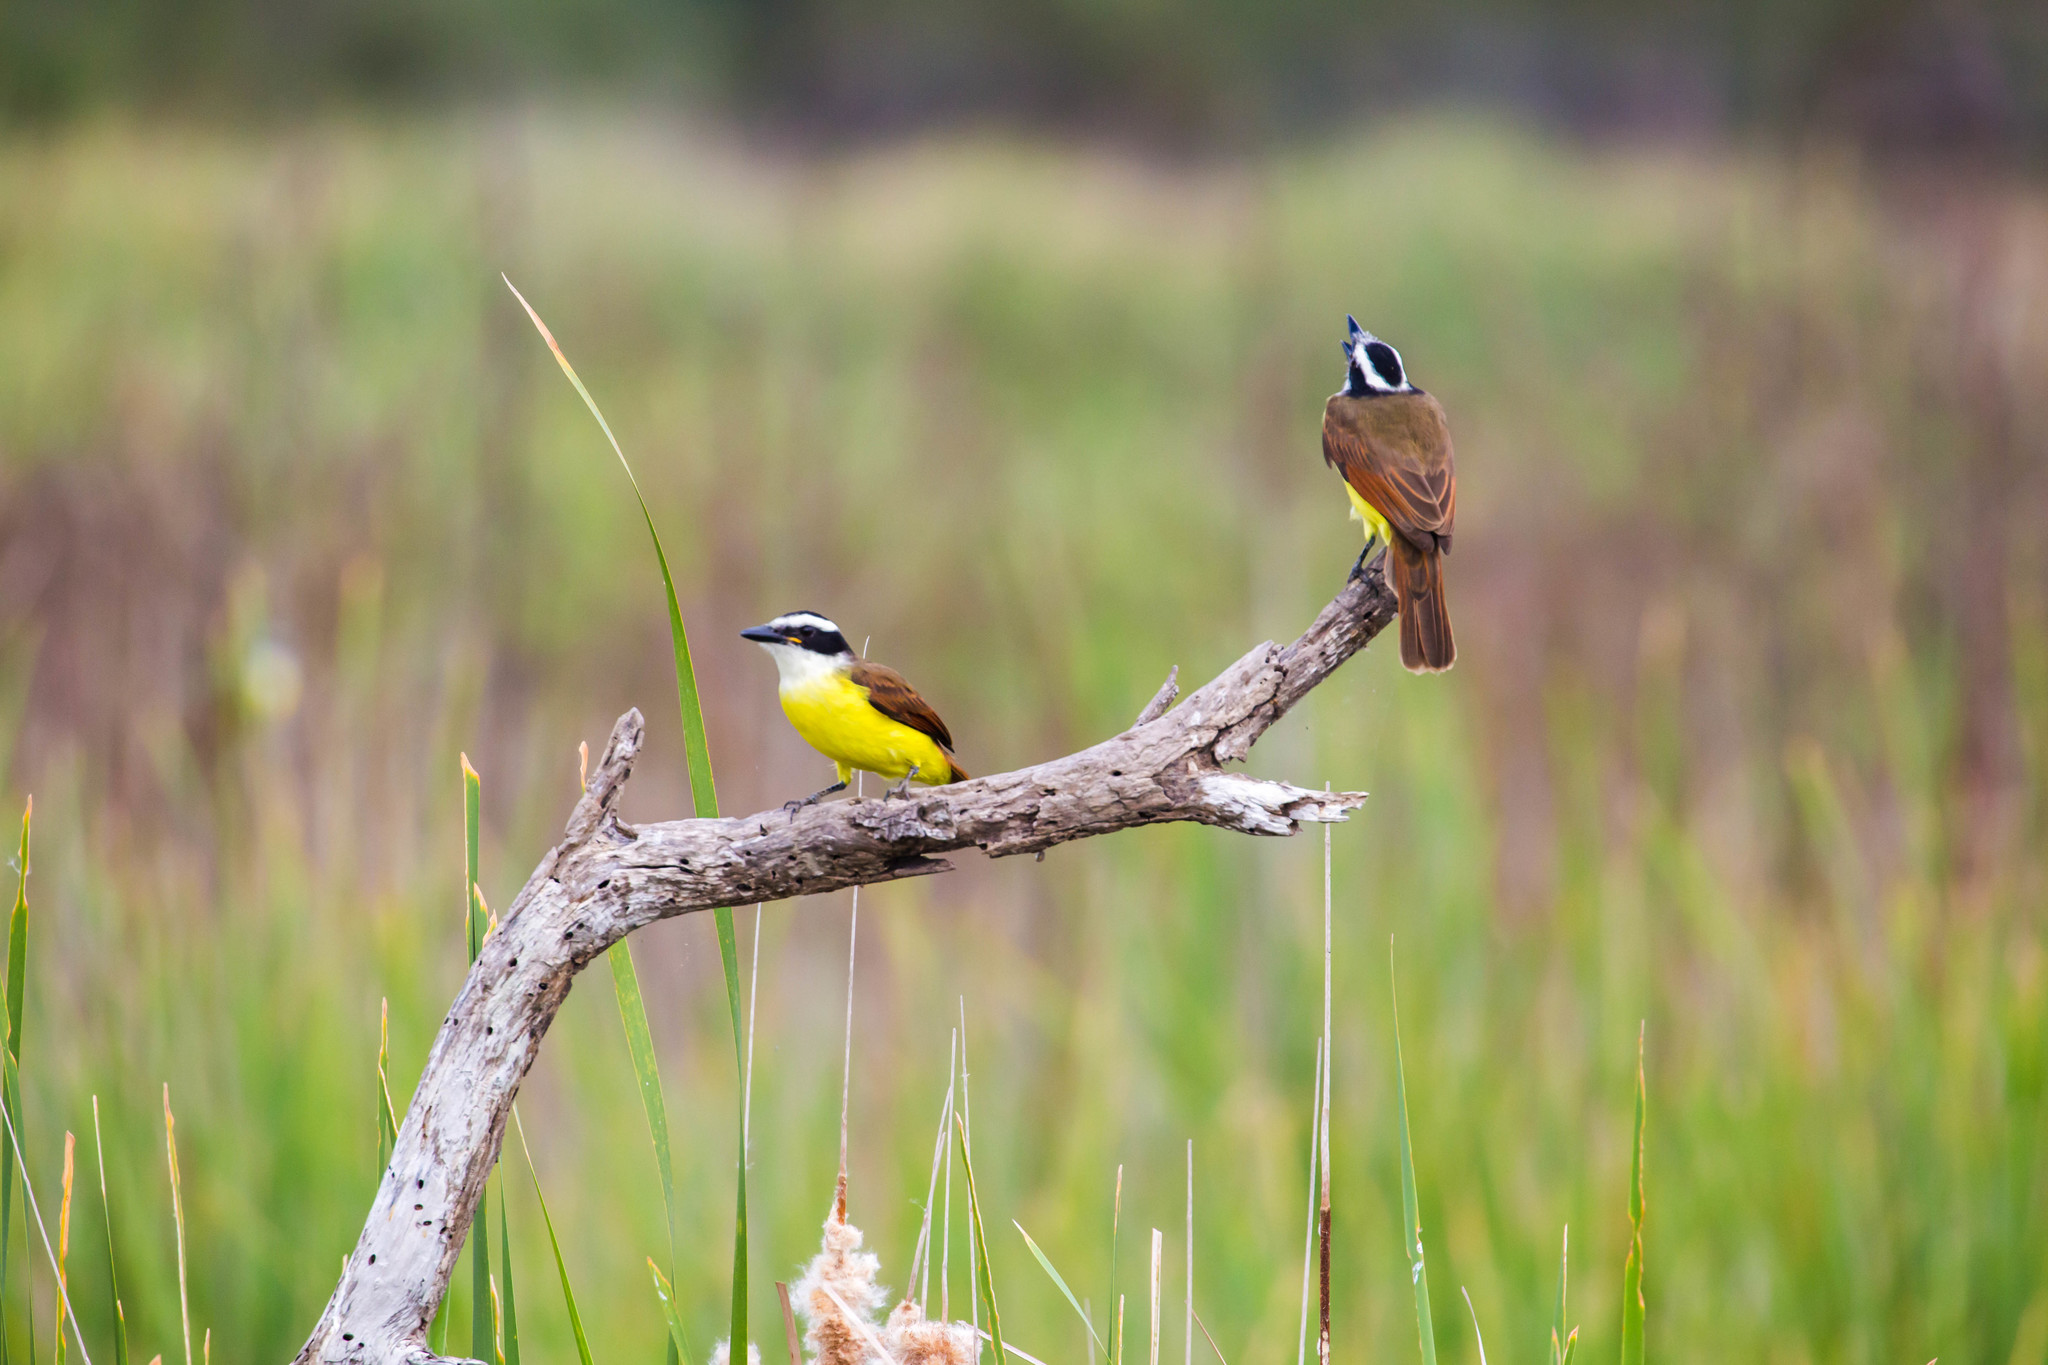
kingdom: Animalia
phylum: Chordata
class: Aves
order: Passeriformes
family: Tyrannidae
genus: Pitangus
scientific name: Pitangus sulphuratus
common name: Great kiskadee
